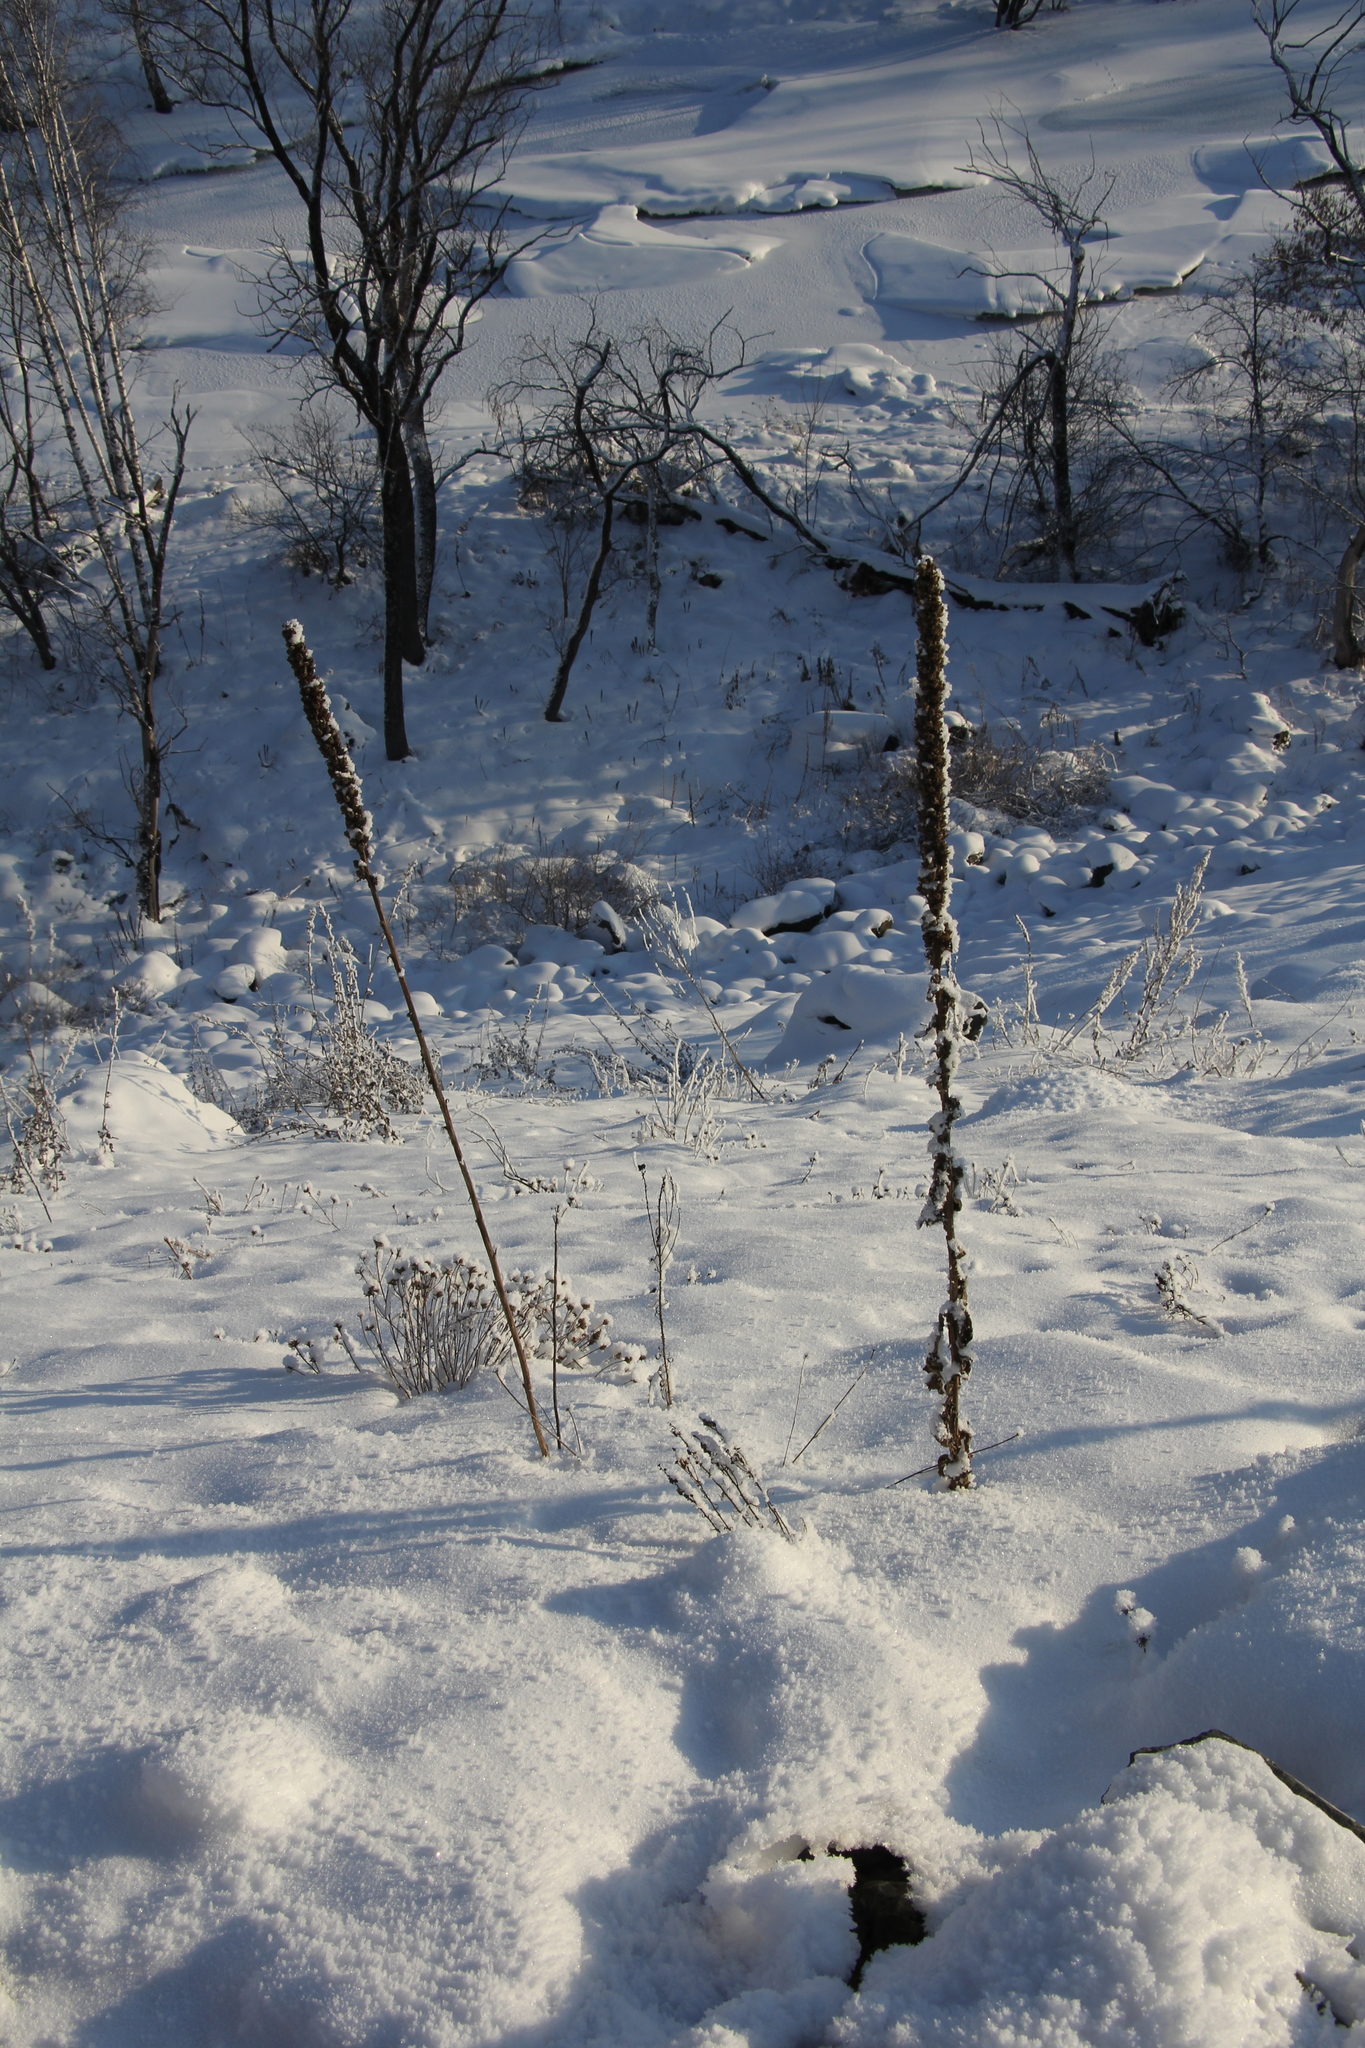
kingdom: Plantae
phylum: Tracheophyta
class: Magnoliopsida
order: Lamiales
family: Scrophulariaceae
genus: Verbascum
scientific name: Verbascum thapsus
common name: Common mullein
